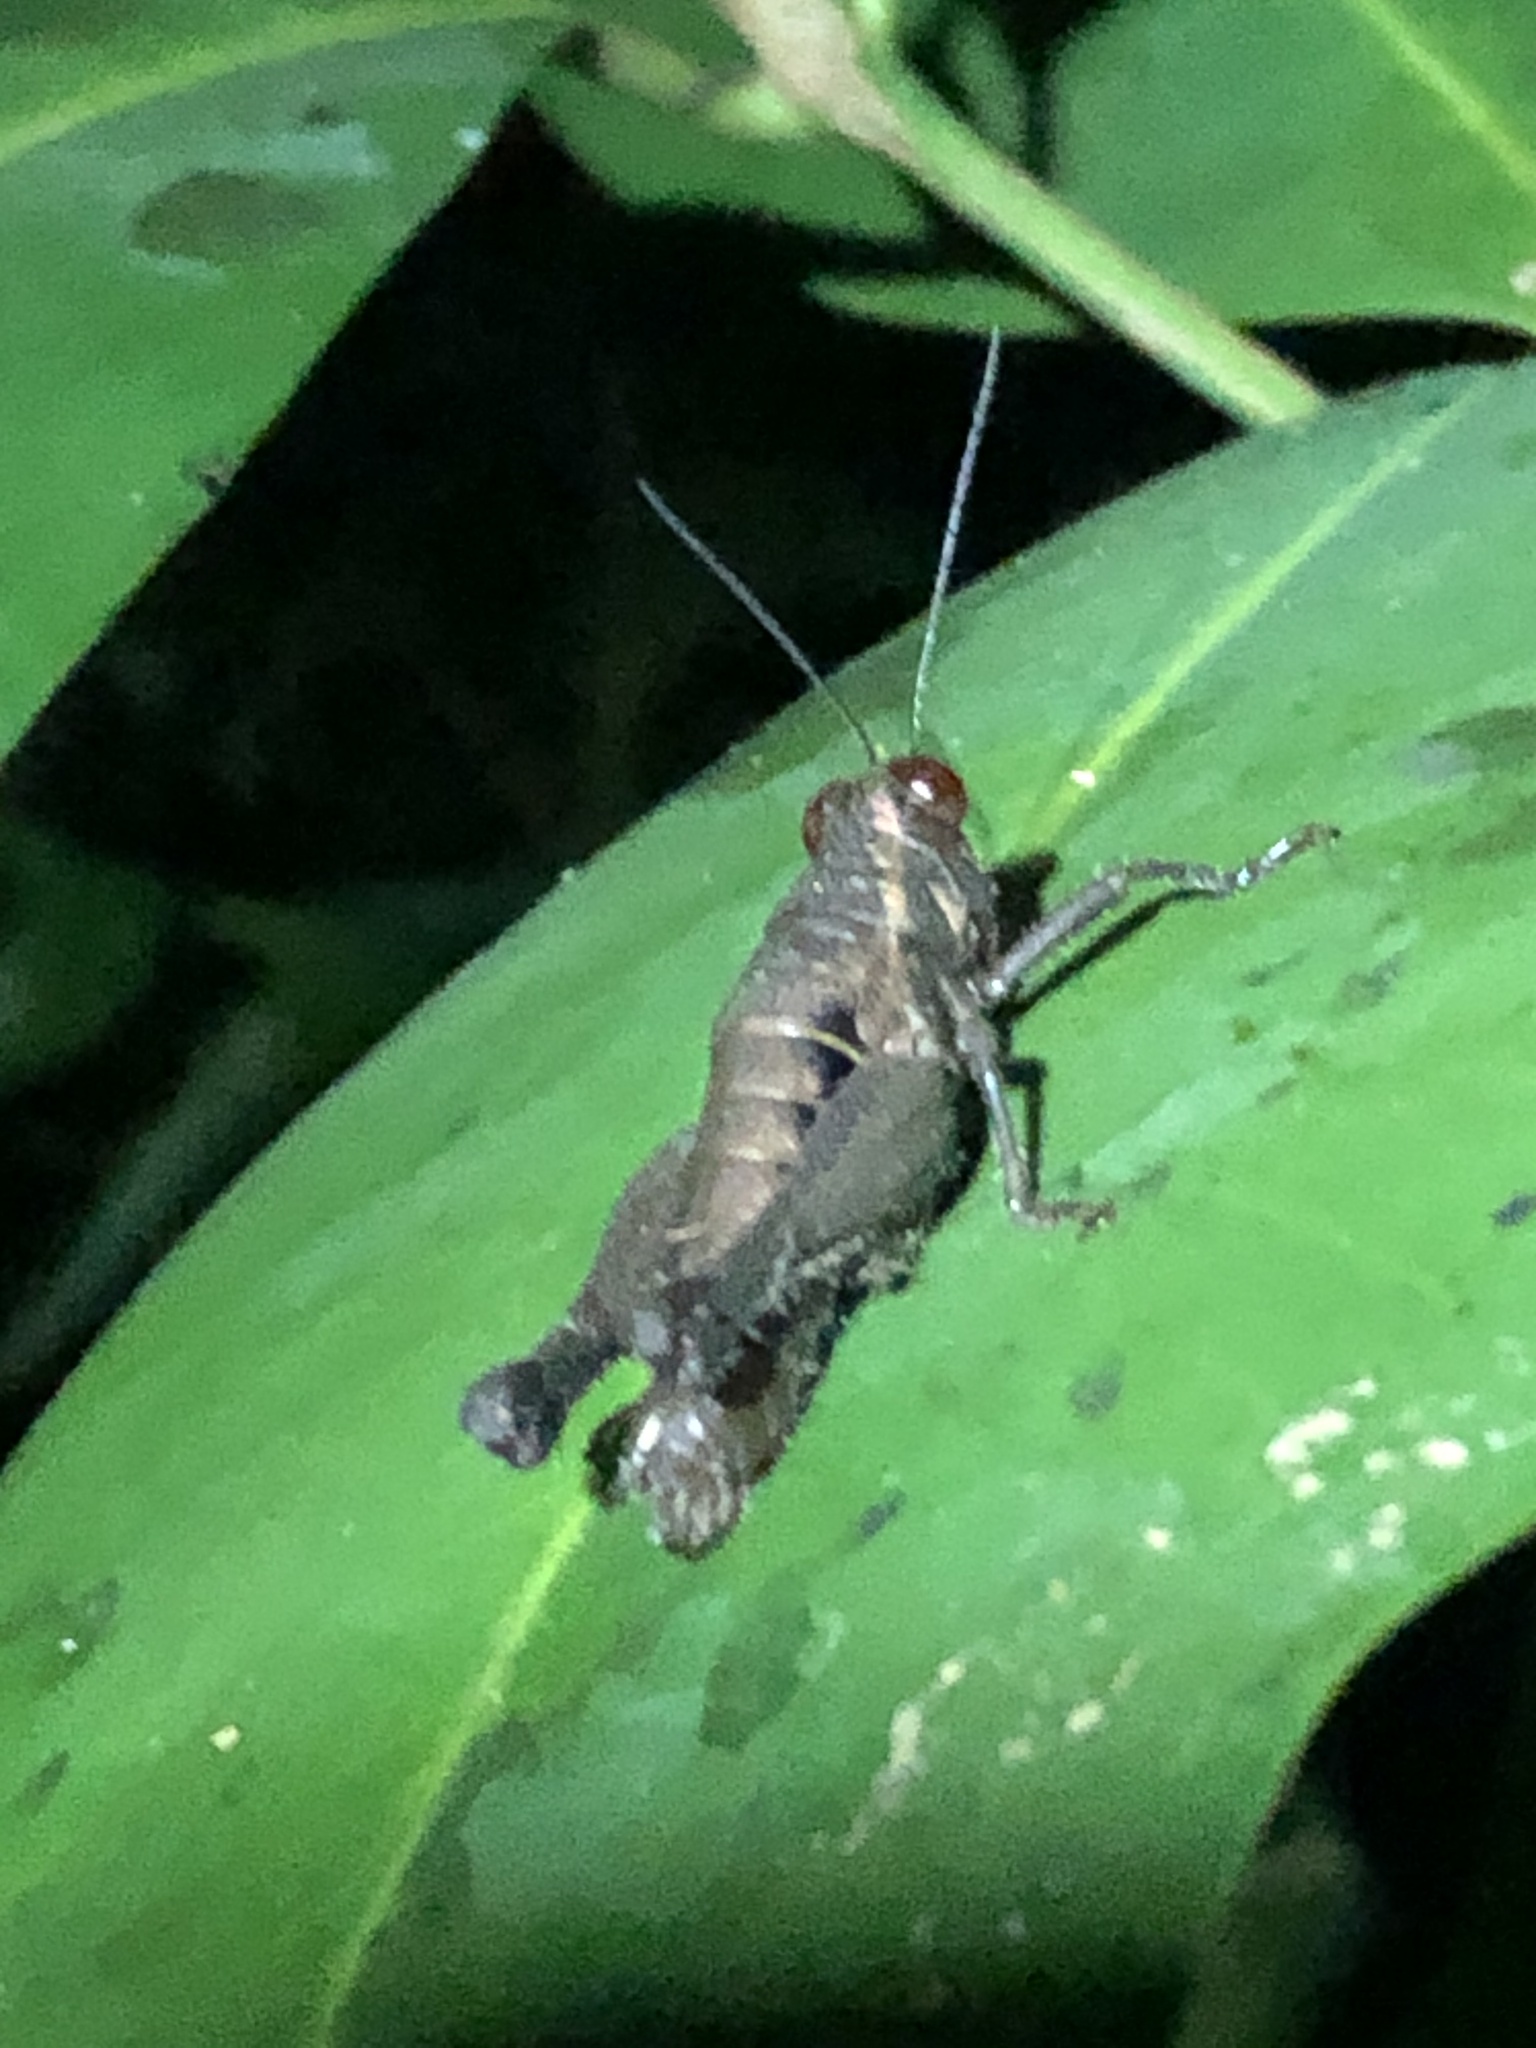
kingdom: Animalia
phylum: Arthropoda
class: Insecta
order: Orthoptera
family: Acrididae
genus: Stenelutracris
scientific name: Stenelutracris lignicola
